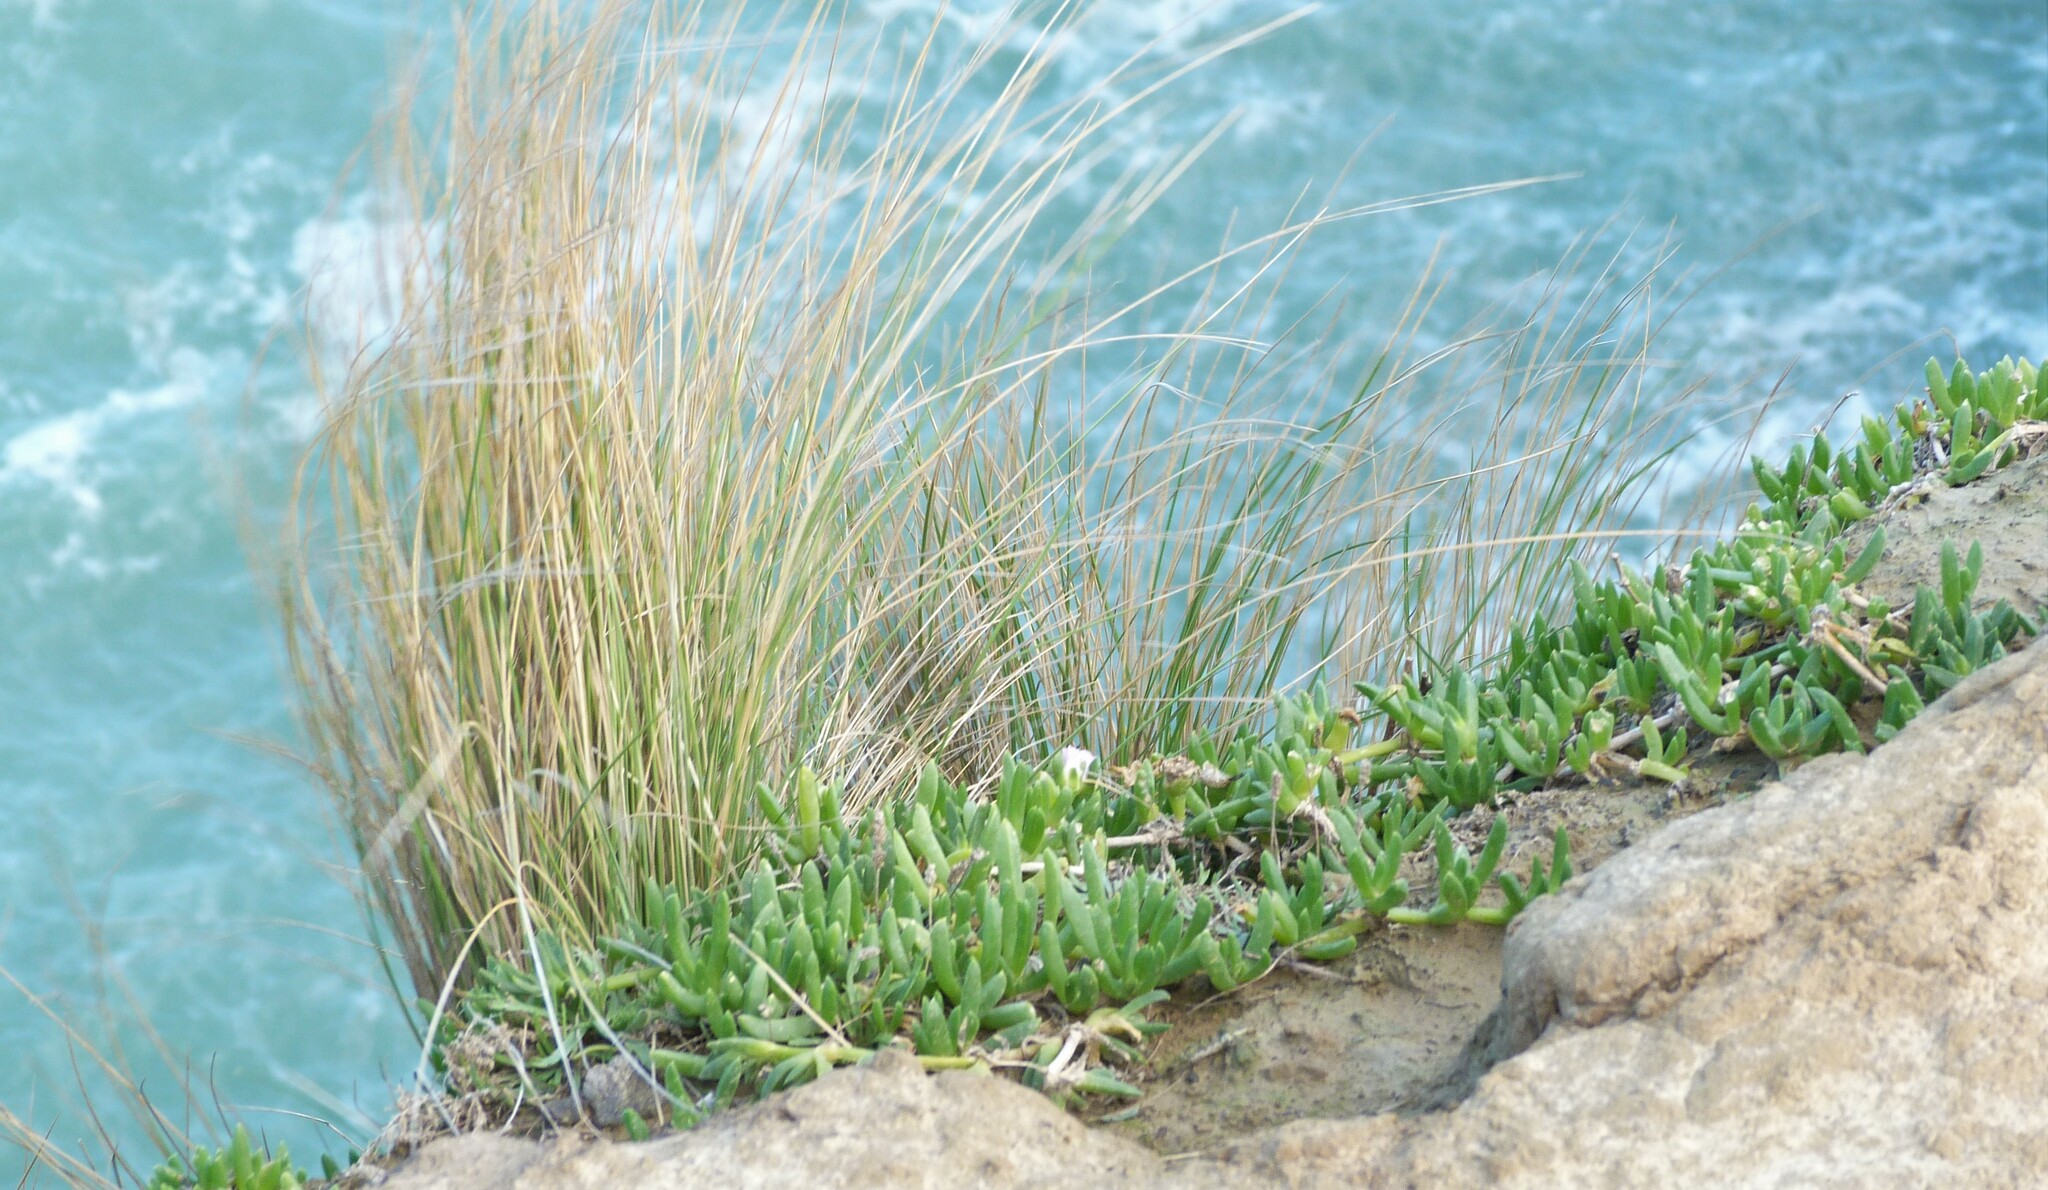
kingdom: Plantae
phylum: Tracheophyta
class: Magnoliopsida
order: Caryophyllales
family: Aizoaceae
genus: Disphyma
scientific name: Disphyma australe
